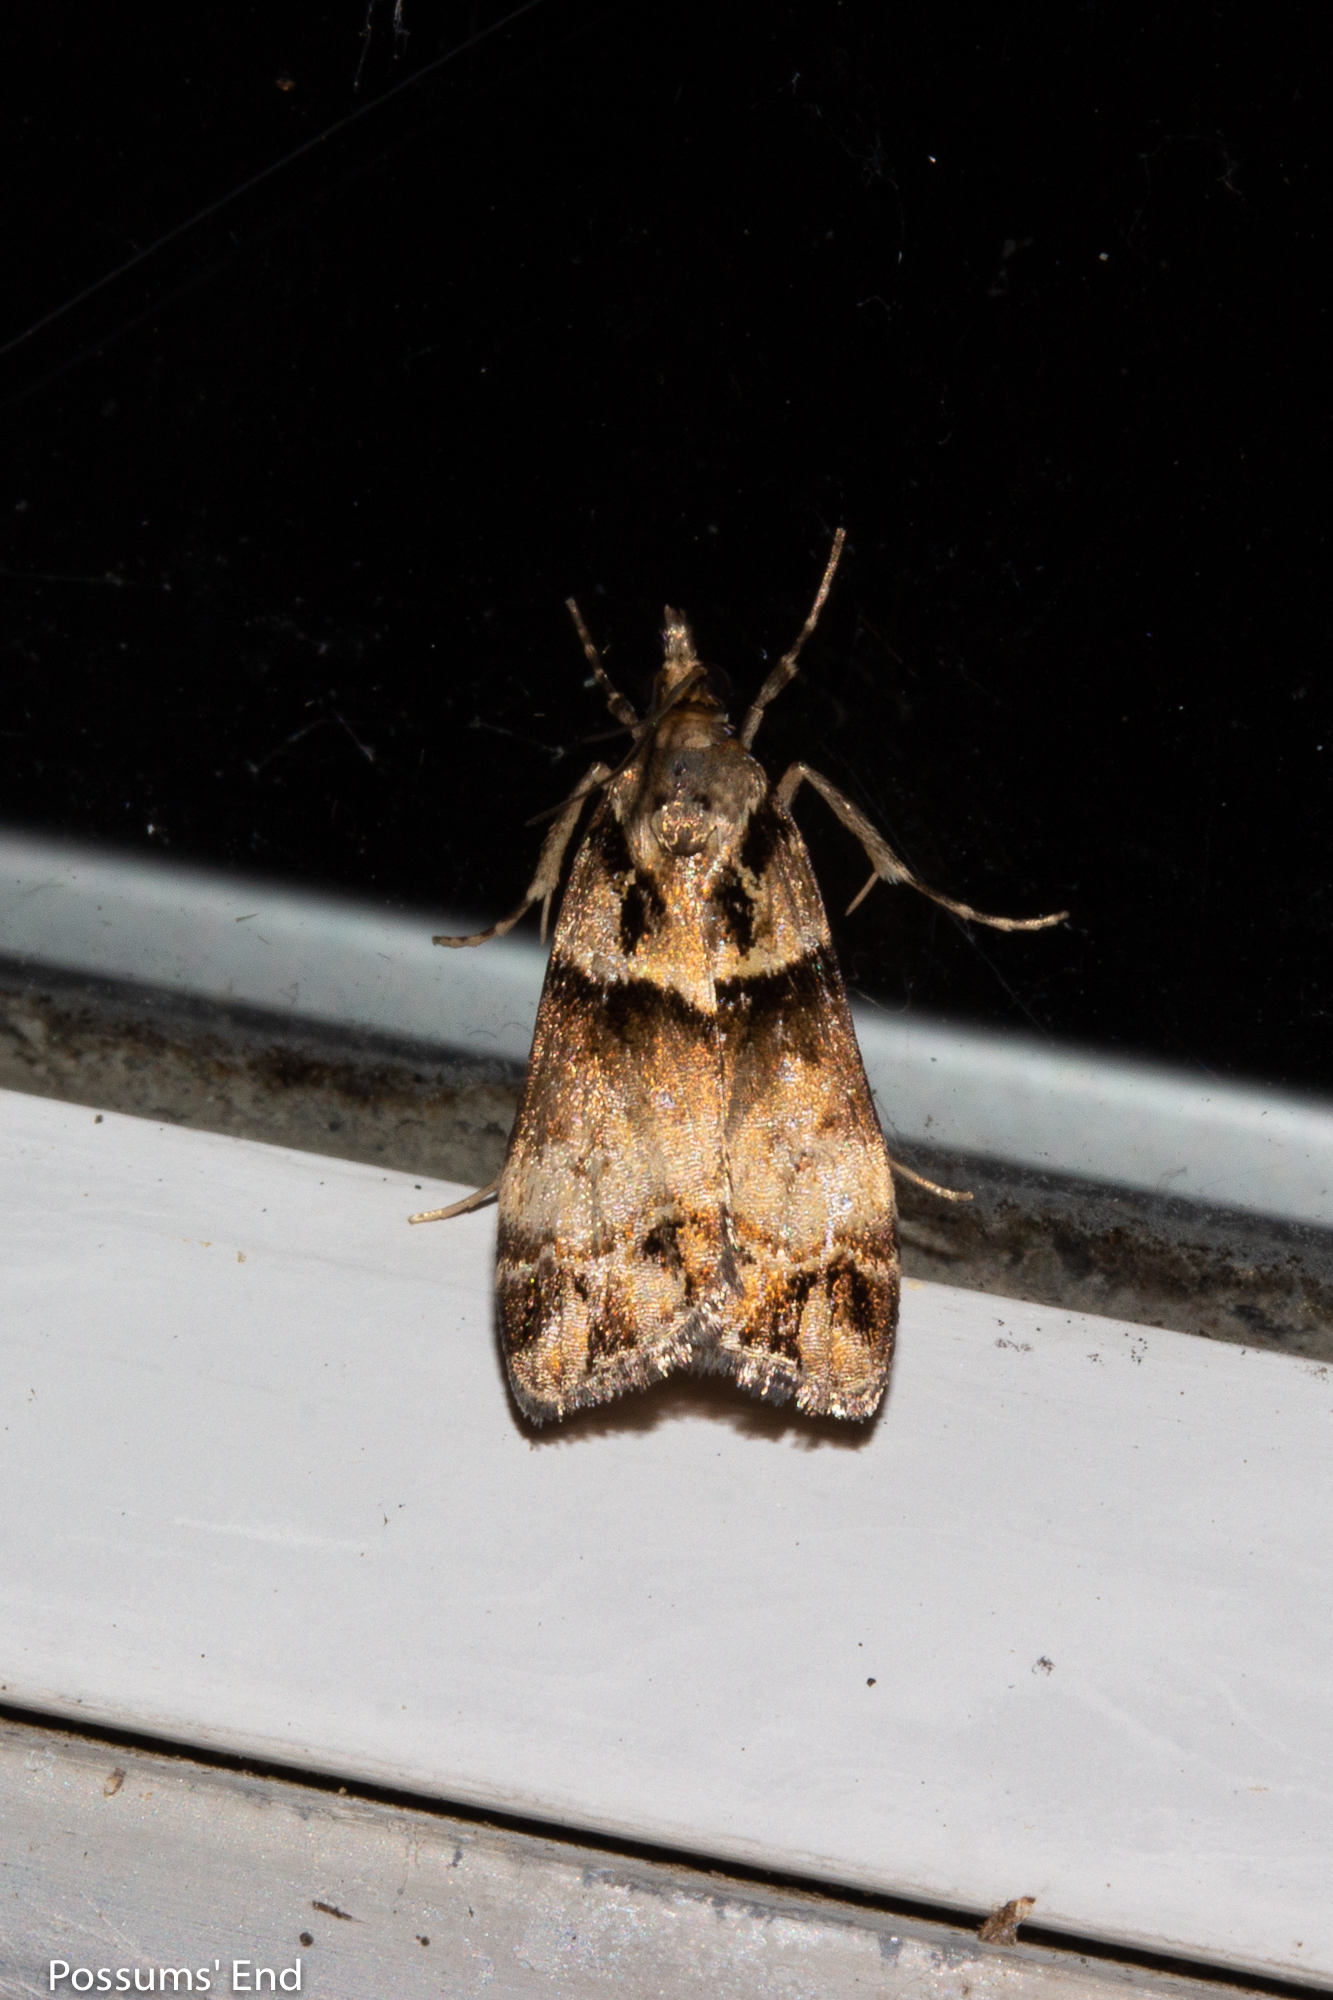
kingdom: Animalia
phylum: Arthropoda
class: Insecta
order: Lepidoptera
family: Crambidae
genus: Eudonia
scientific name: Eudonia periphanes
